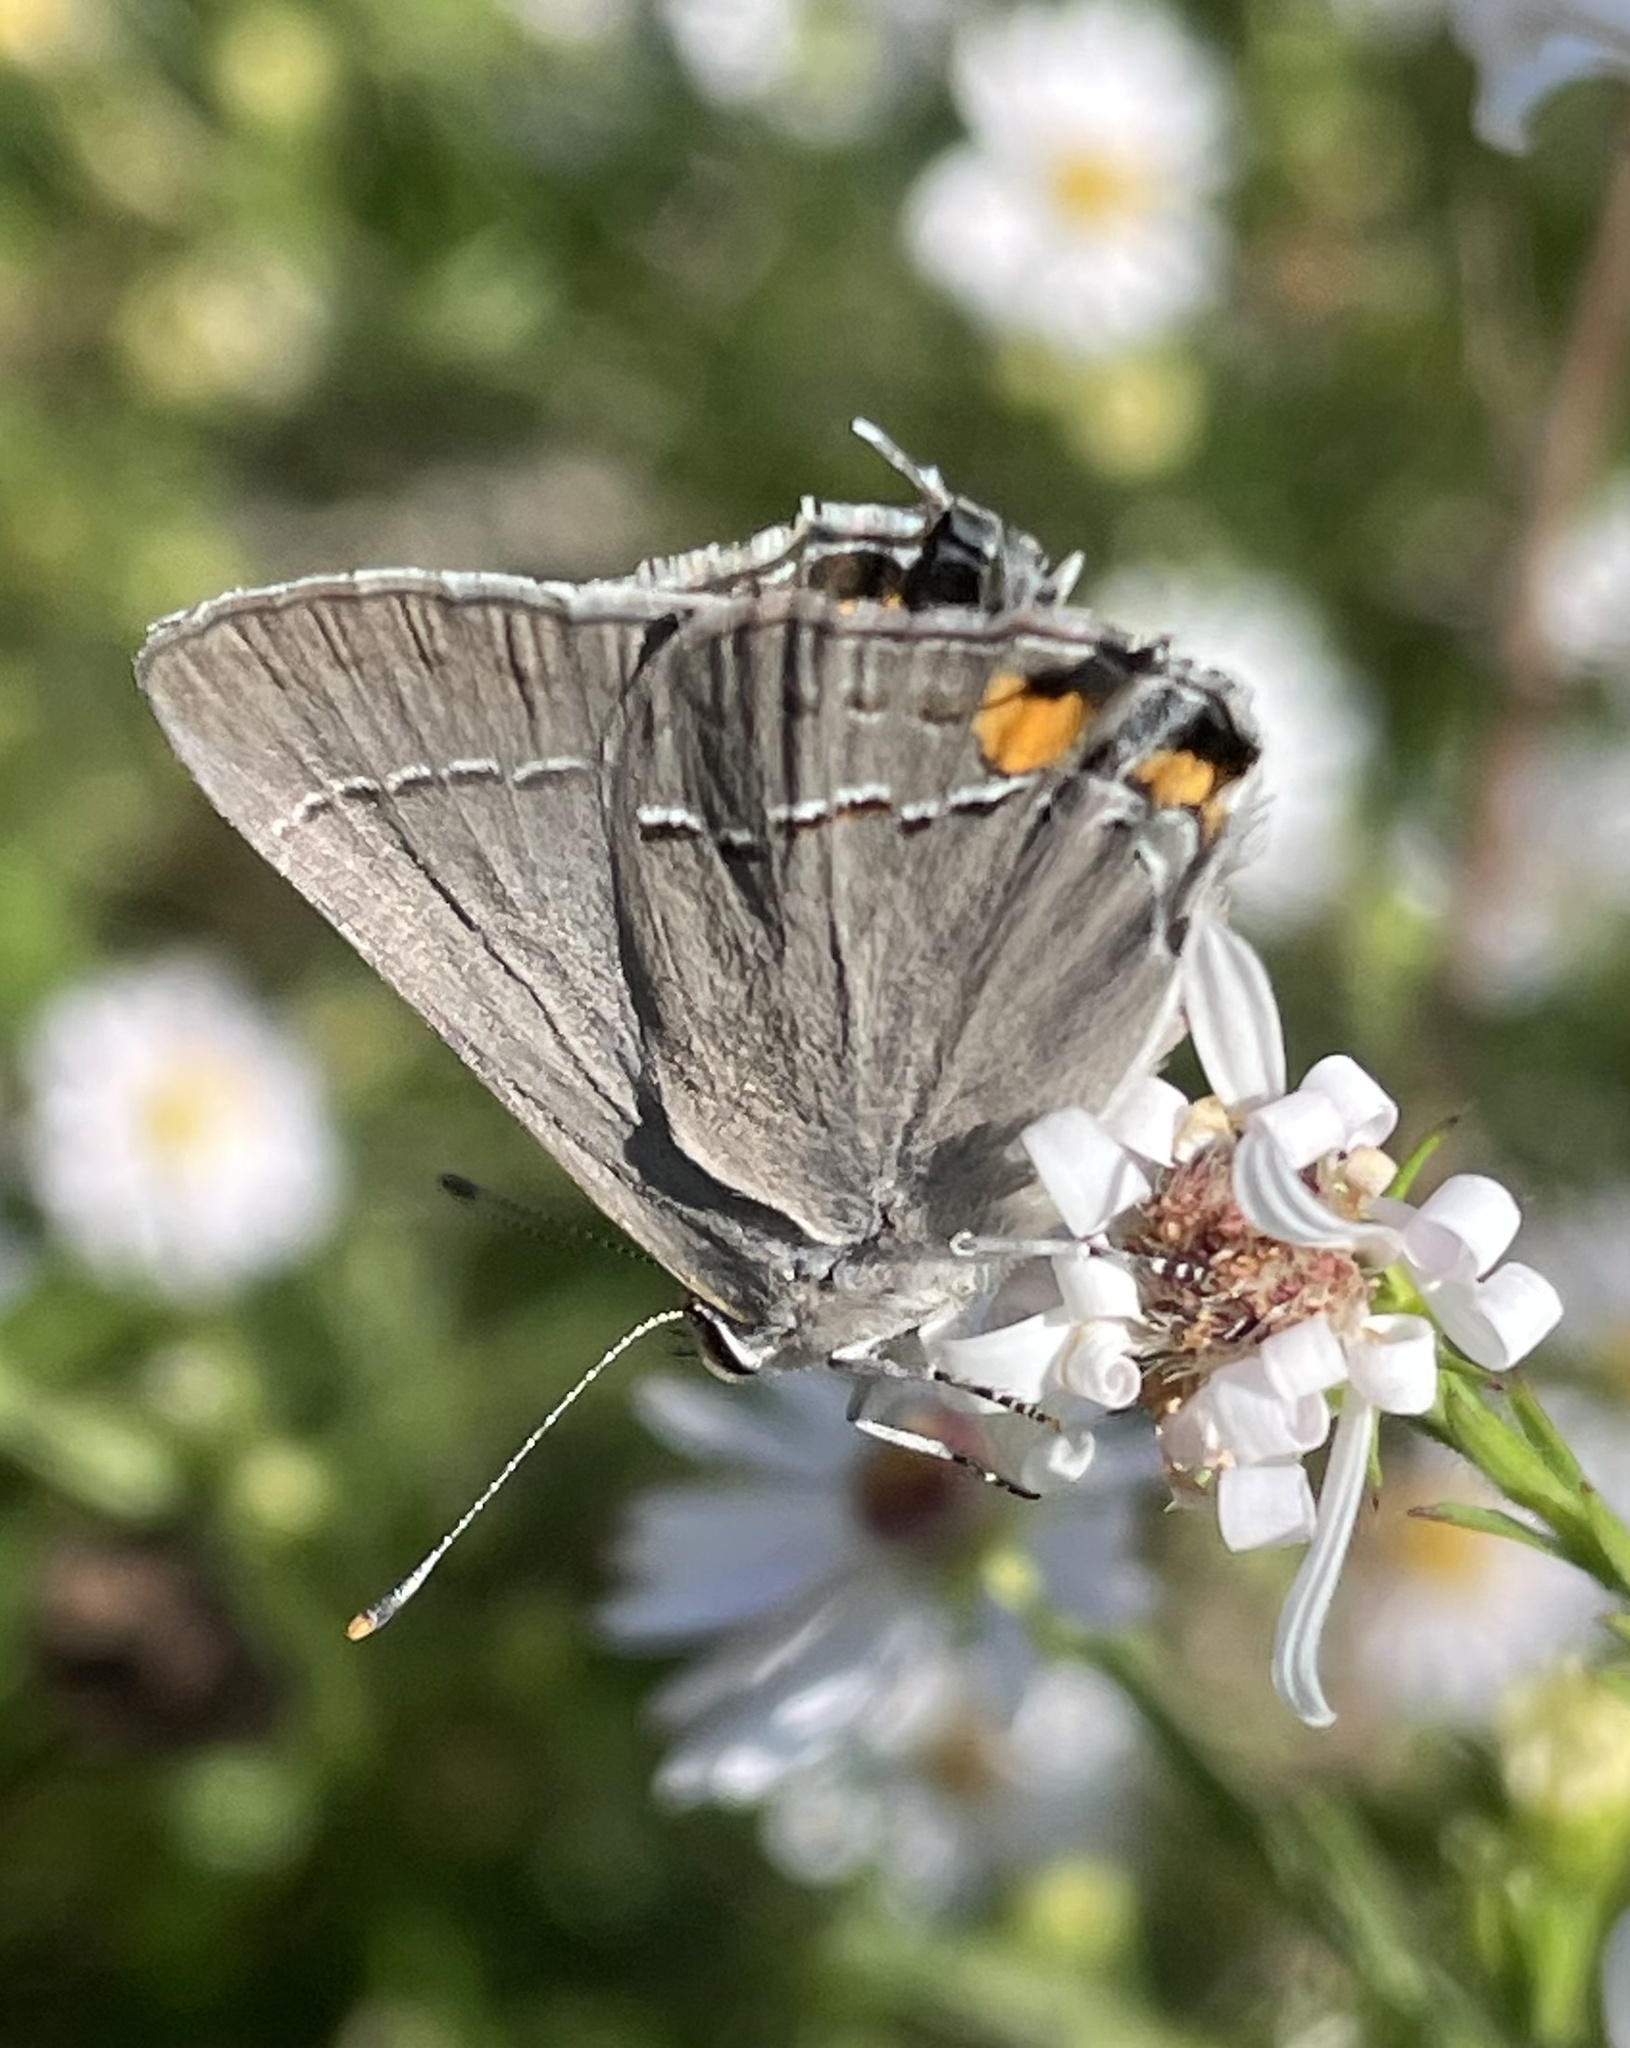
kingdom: Animalia
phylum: Arthropoda
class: Insecta
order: Lepidoptera
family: Lycaenidae
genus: Strymon
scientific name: Strymon melinus
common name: Gray hairstreak
